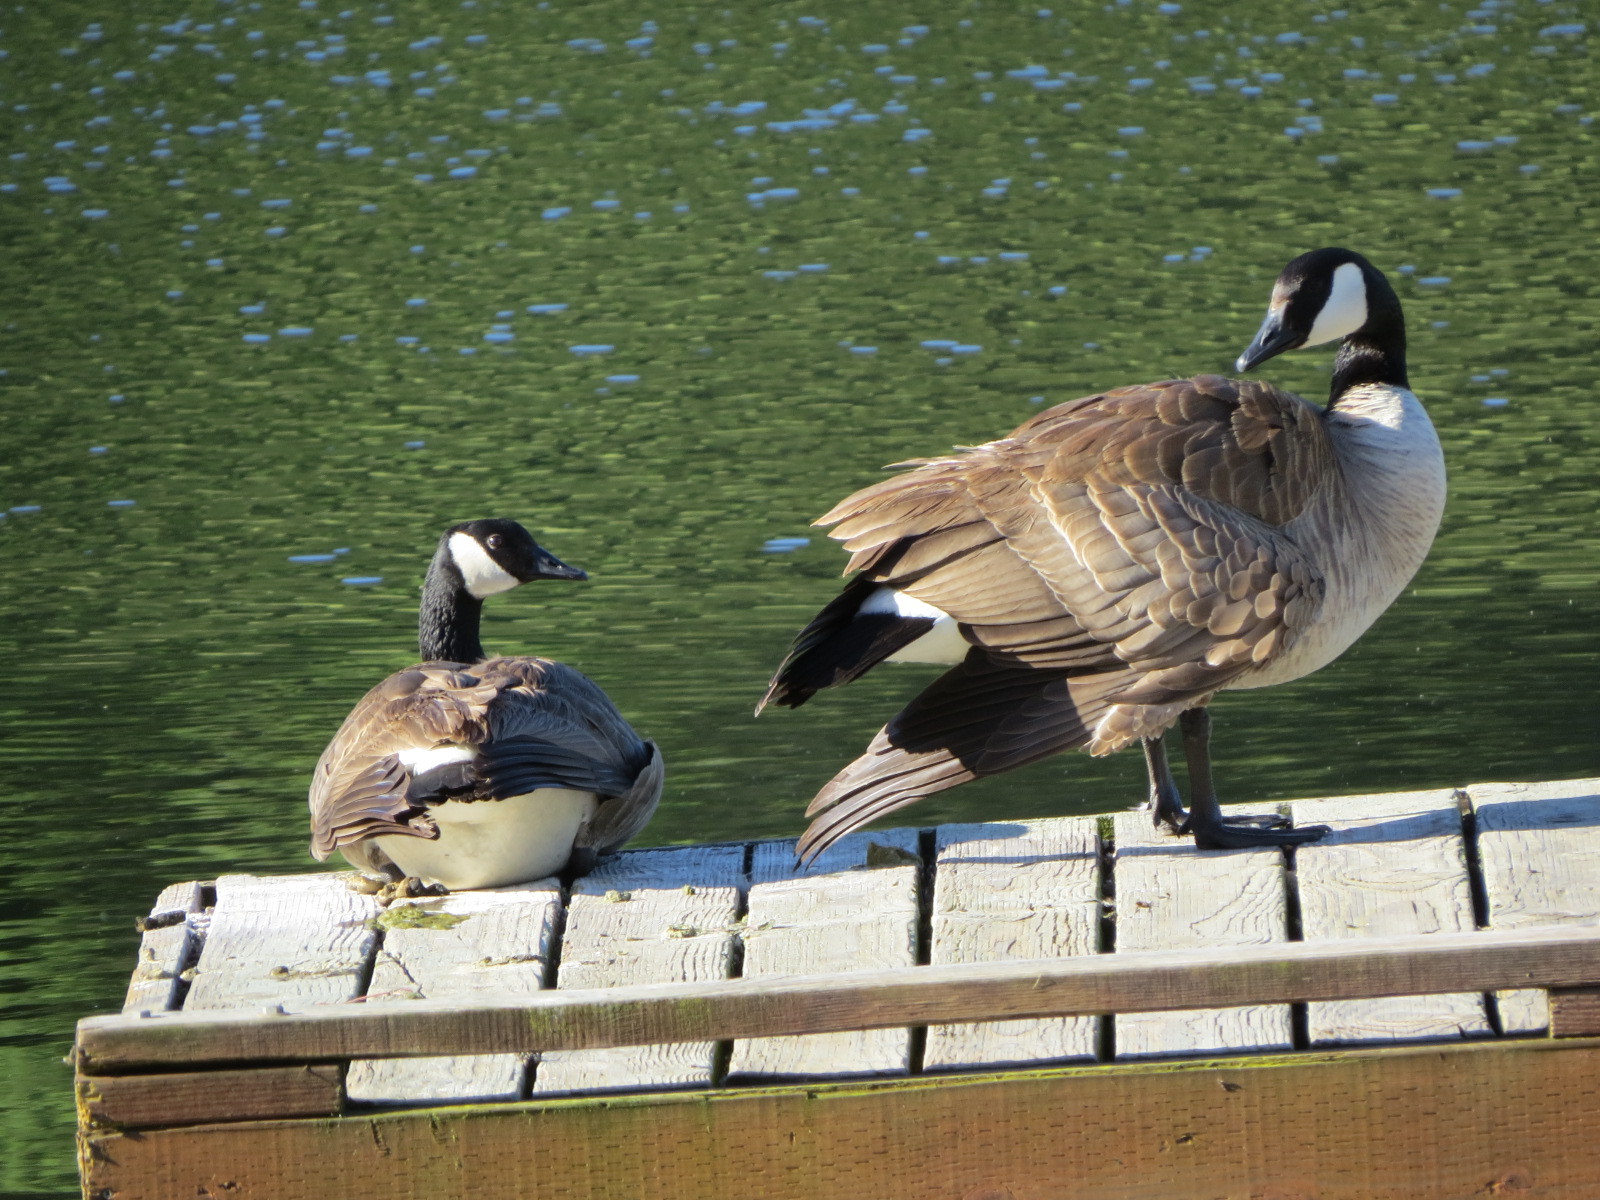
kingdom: Animalia
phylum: Chordata
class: Aves
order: Anseriformes
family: Anatidae
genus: Branta
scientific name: Branta canadensis
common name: Canada goose
